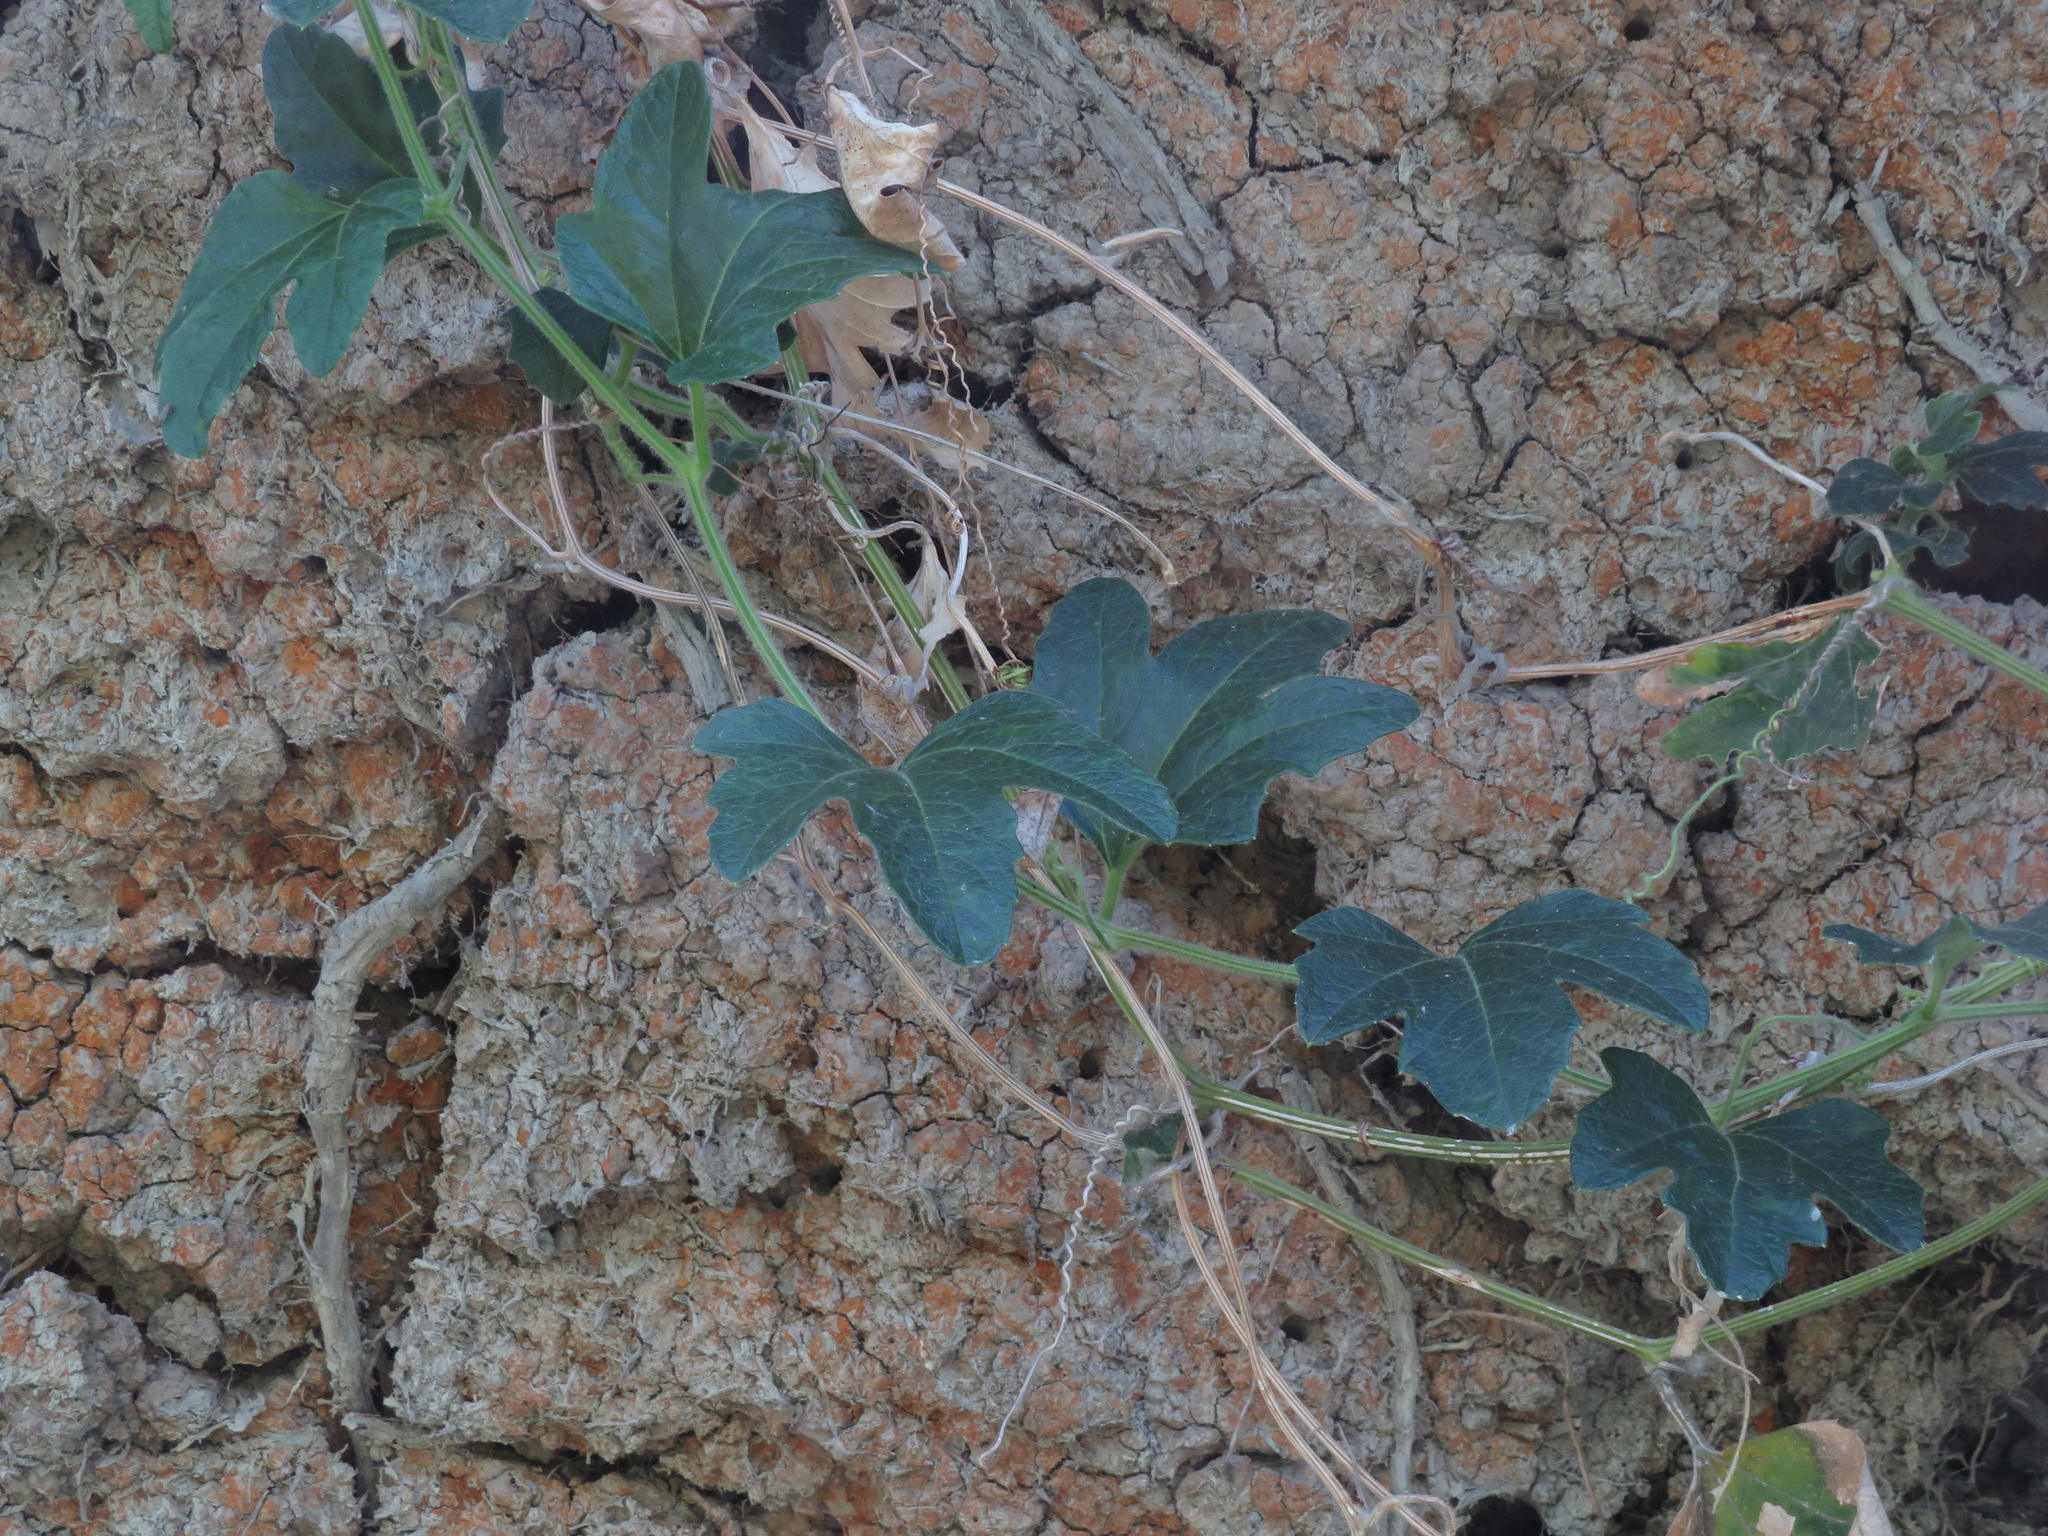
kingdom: Plantae
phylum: Tracheophyta
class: Magnoliopsida
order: Cucurbitales
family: Cucurbitaceae
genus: Cayaponia
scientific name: Cayaponia podantha
